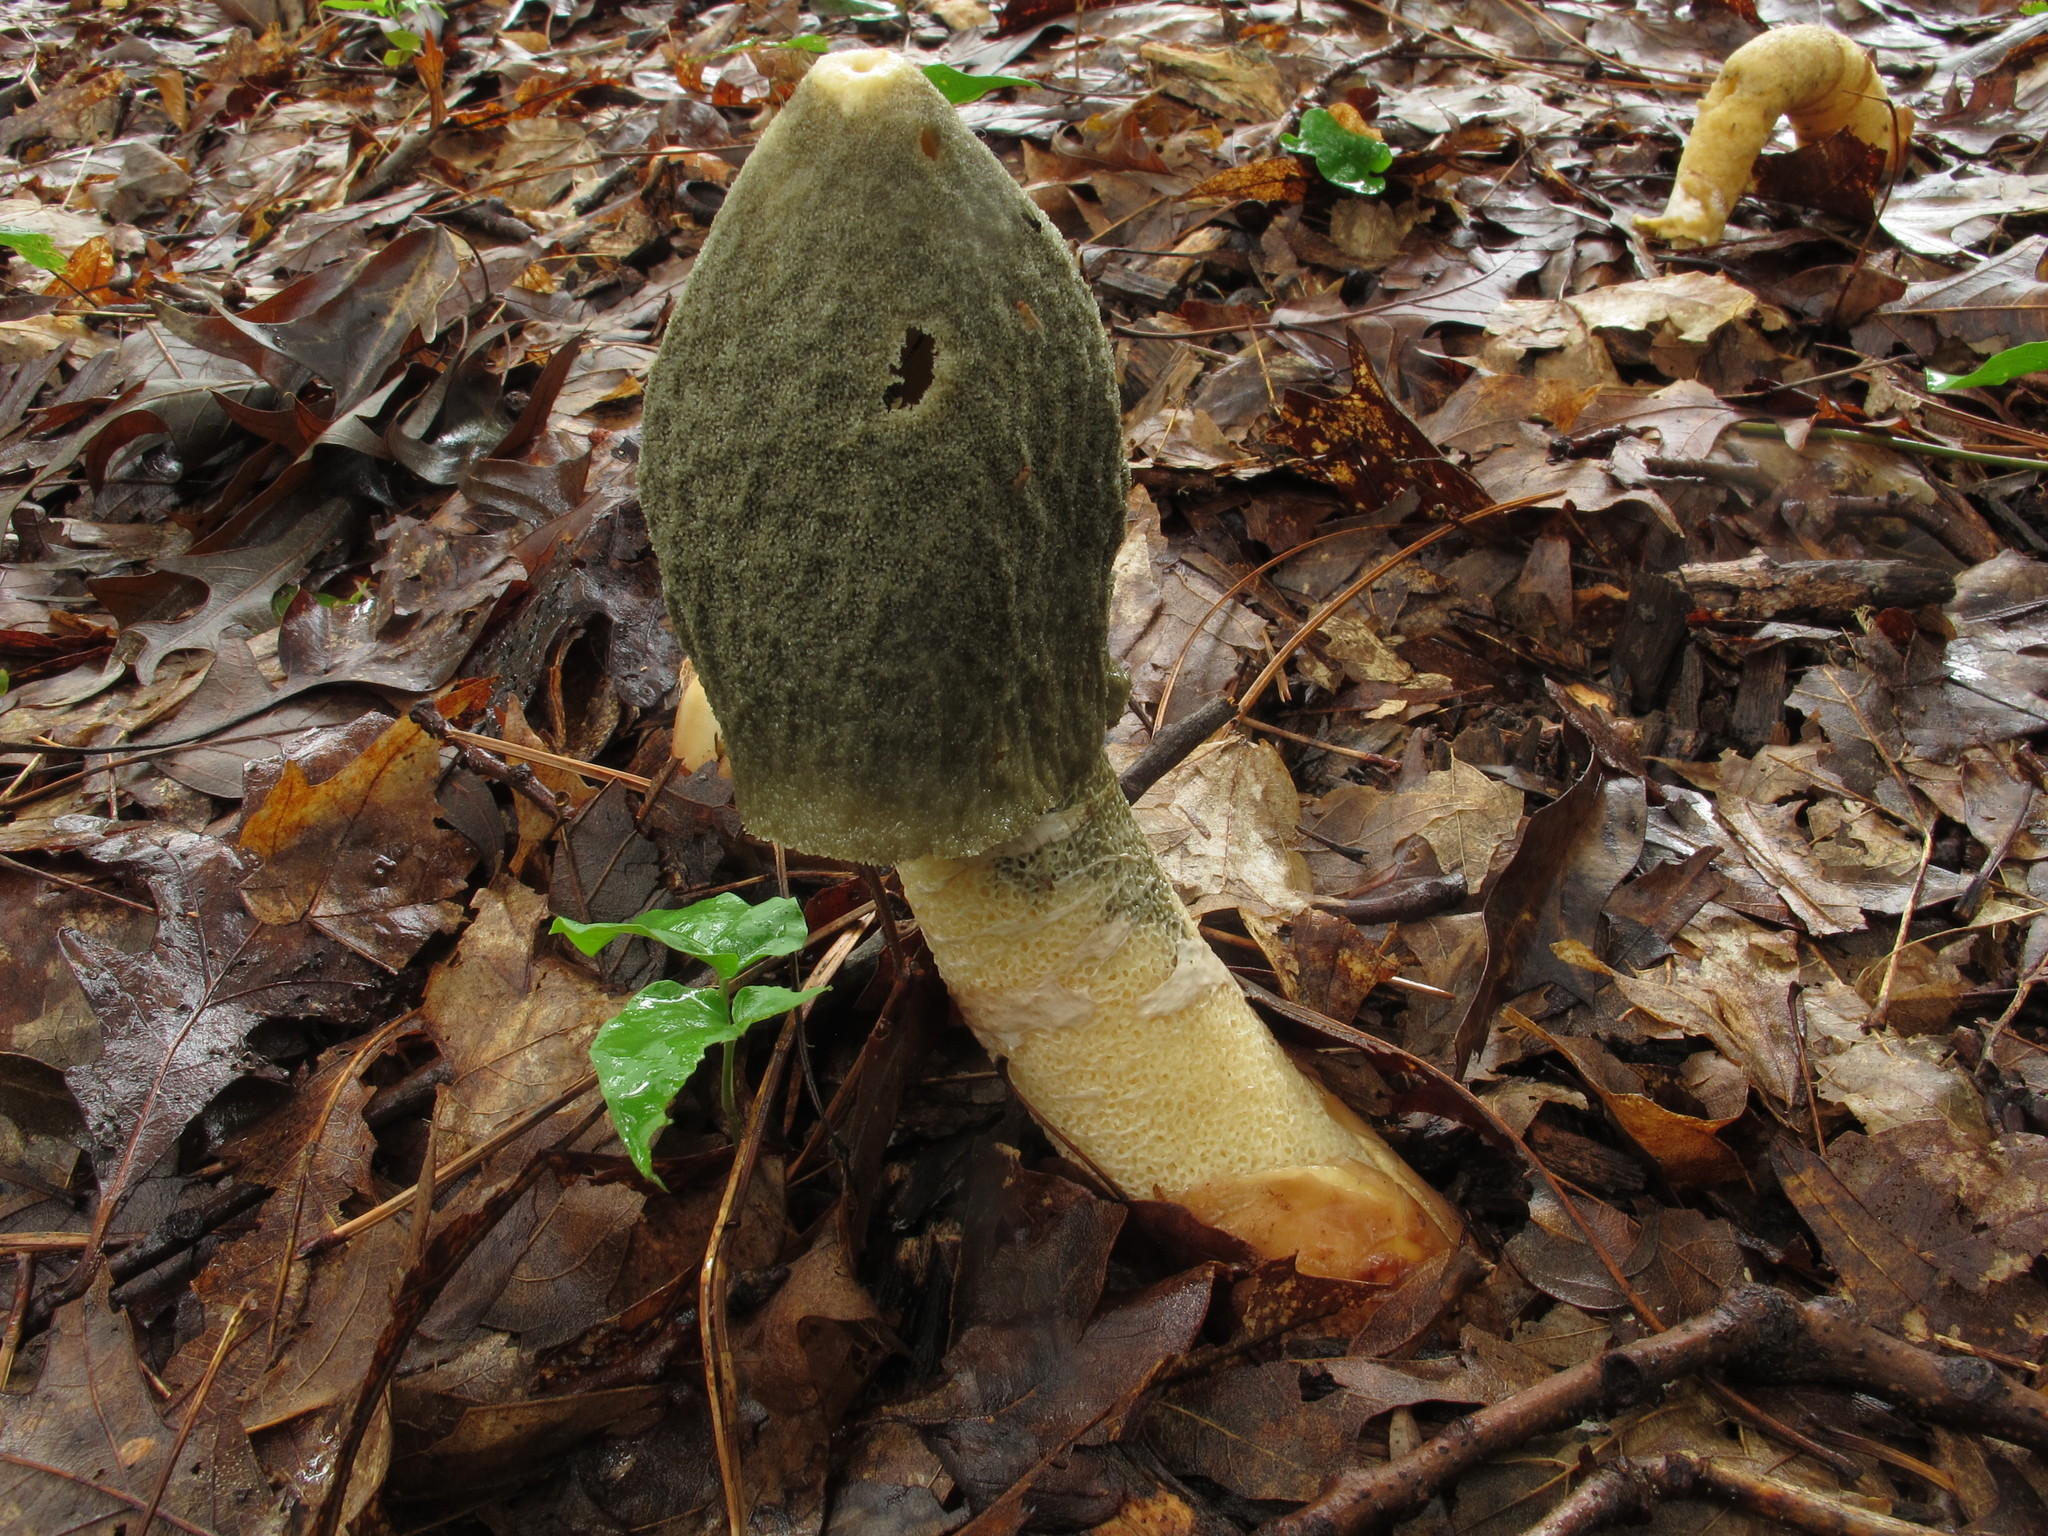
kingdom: Fungi
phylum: Basidiomycota
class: Agaricomycetes
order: Phallales
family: Phallaceae
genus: Phallus
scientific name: Phallus ravenelii
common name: Ravenel's stinkhorn
